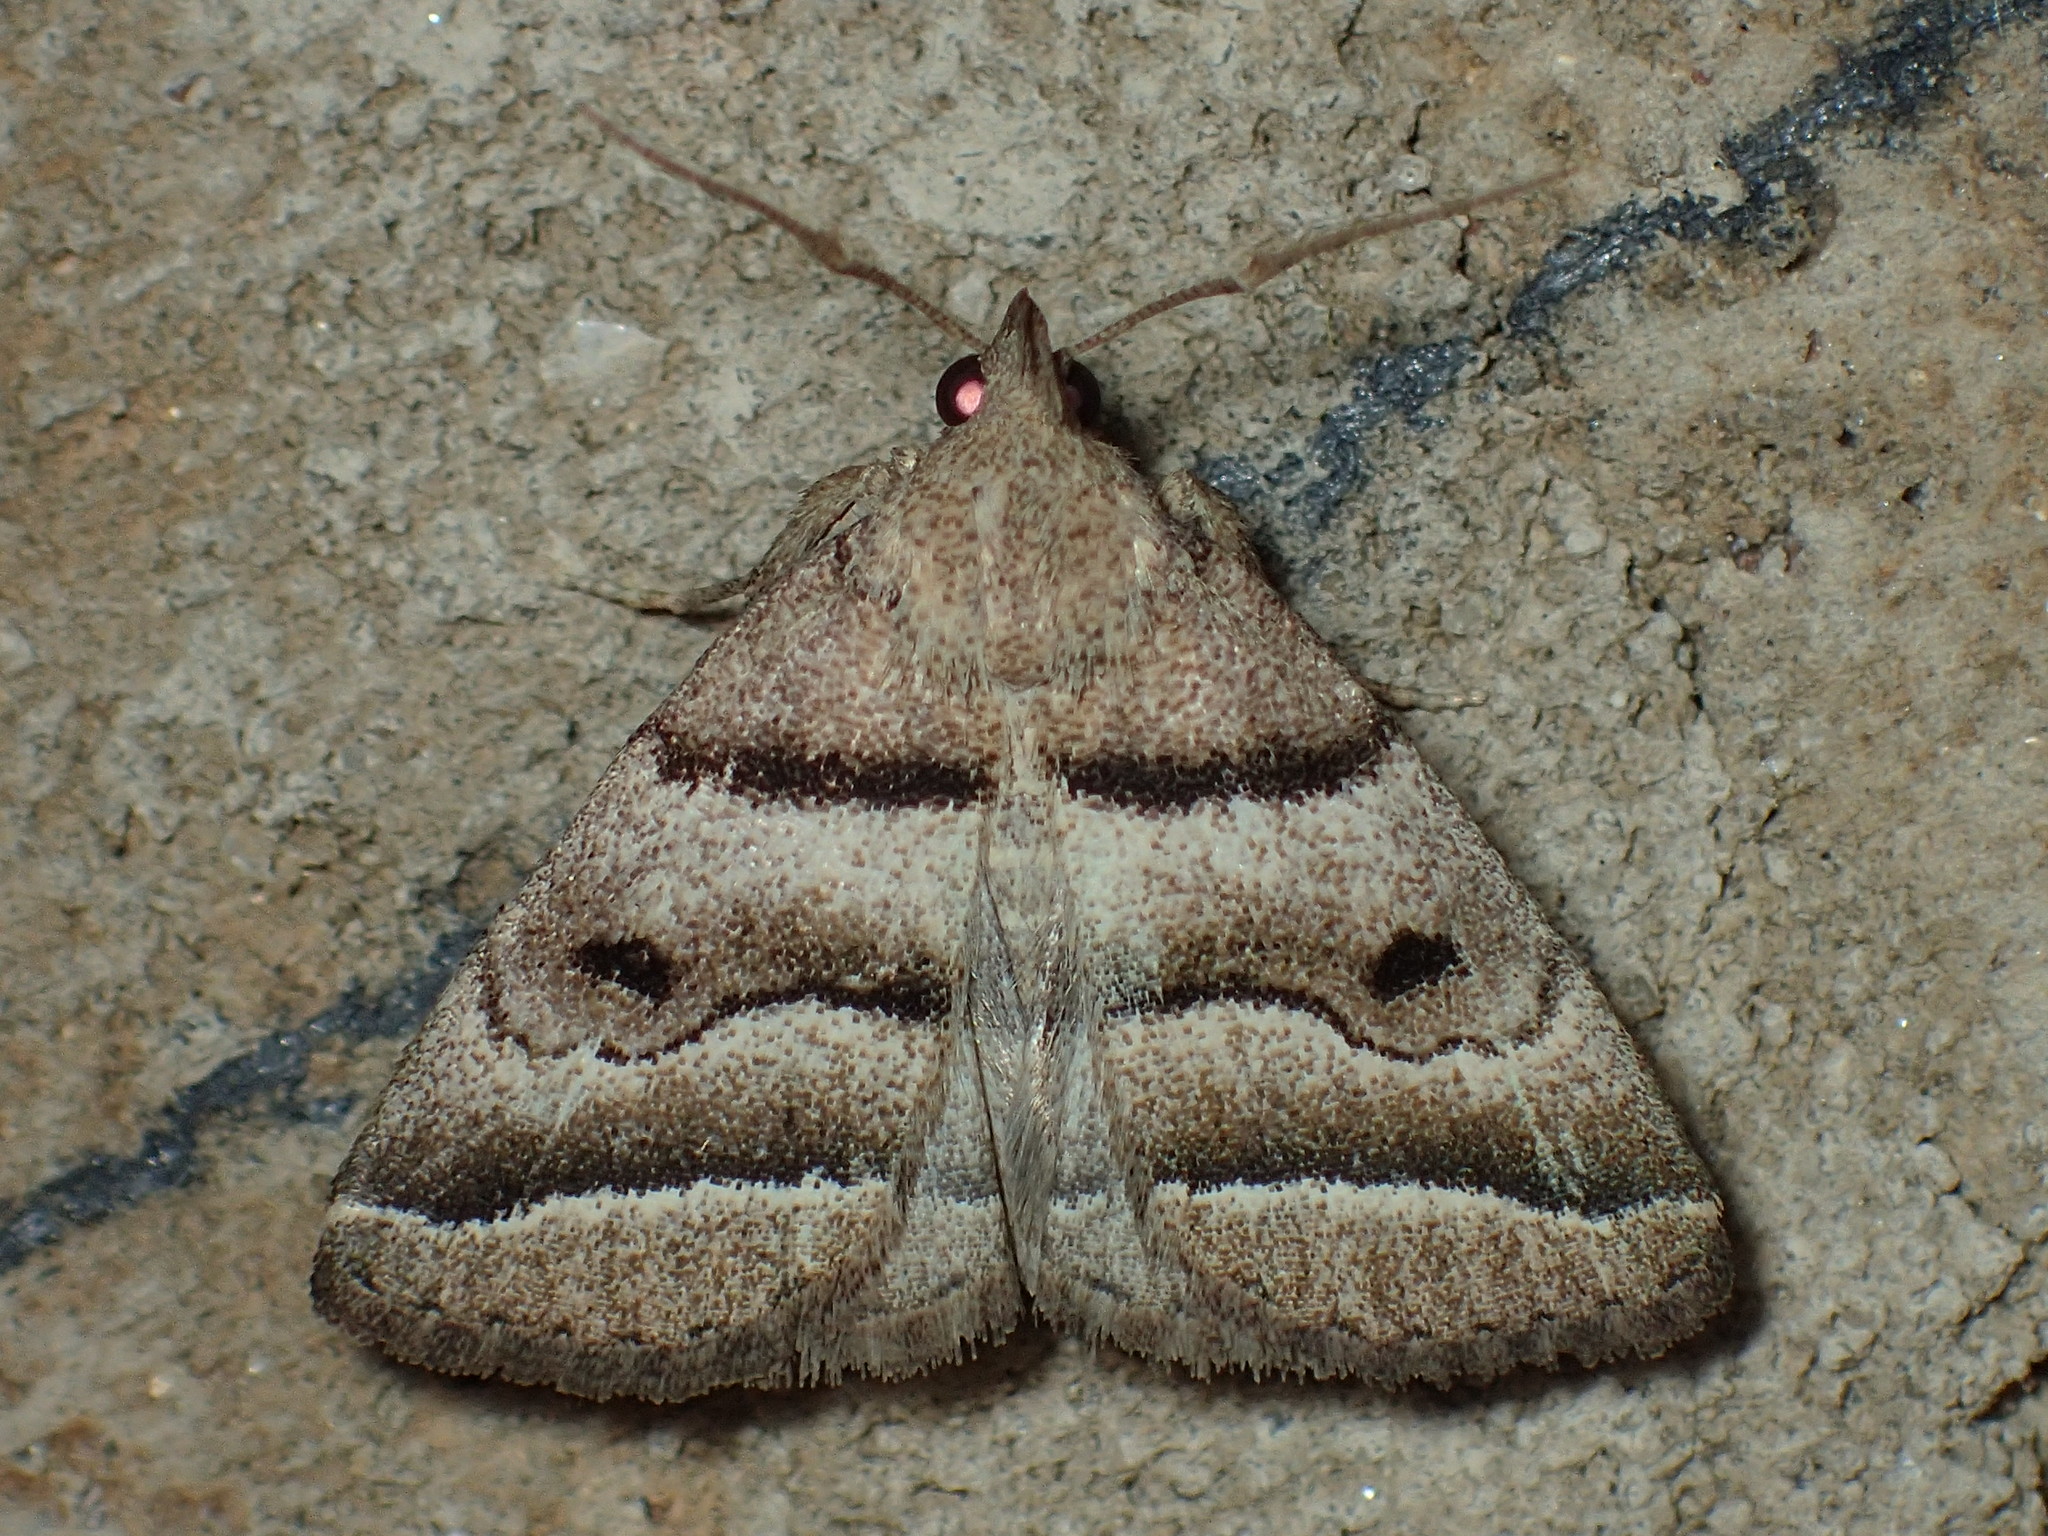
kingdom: Animalia
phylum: Arthropoda
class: Insecta
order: Lepidoptera
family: Erebidae
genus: Zanclognatha
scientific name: Zanclognatha atrilineella
